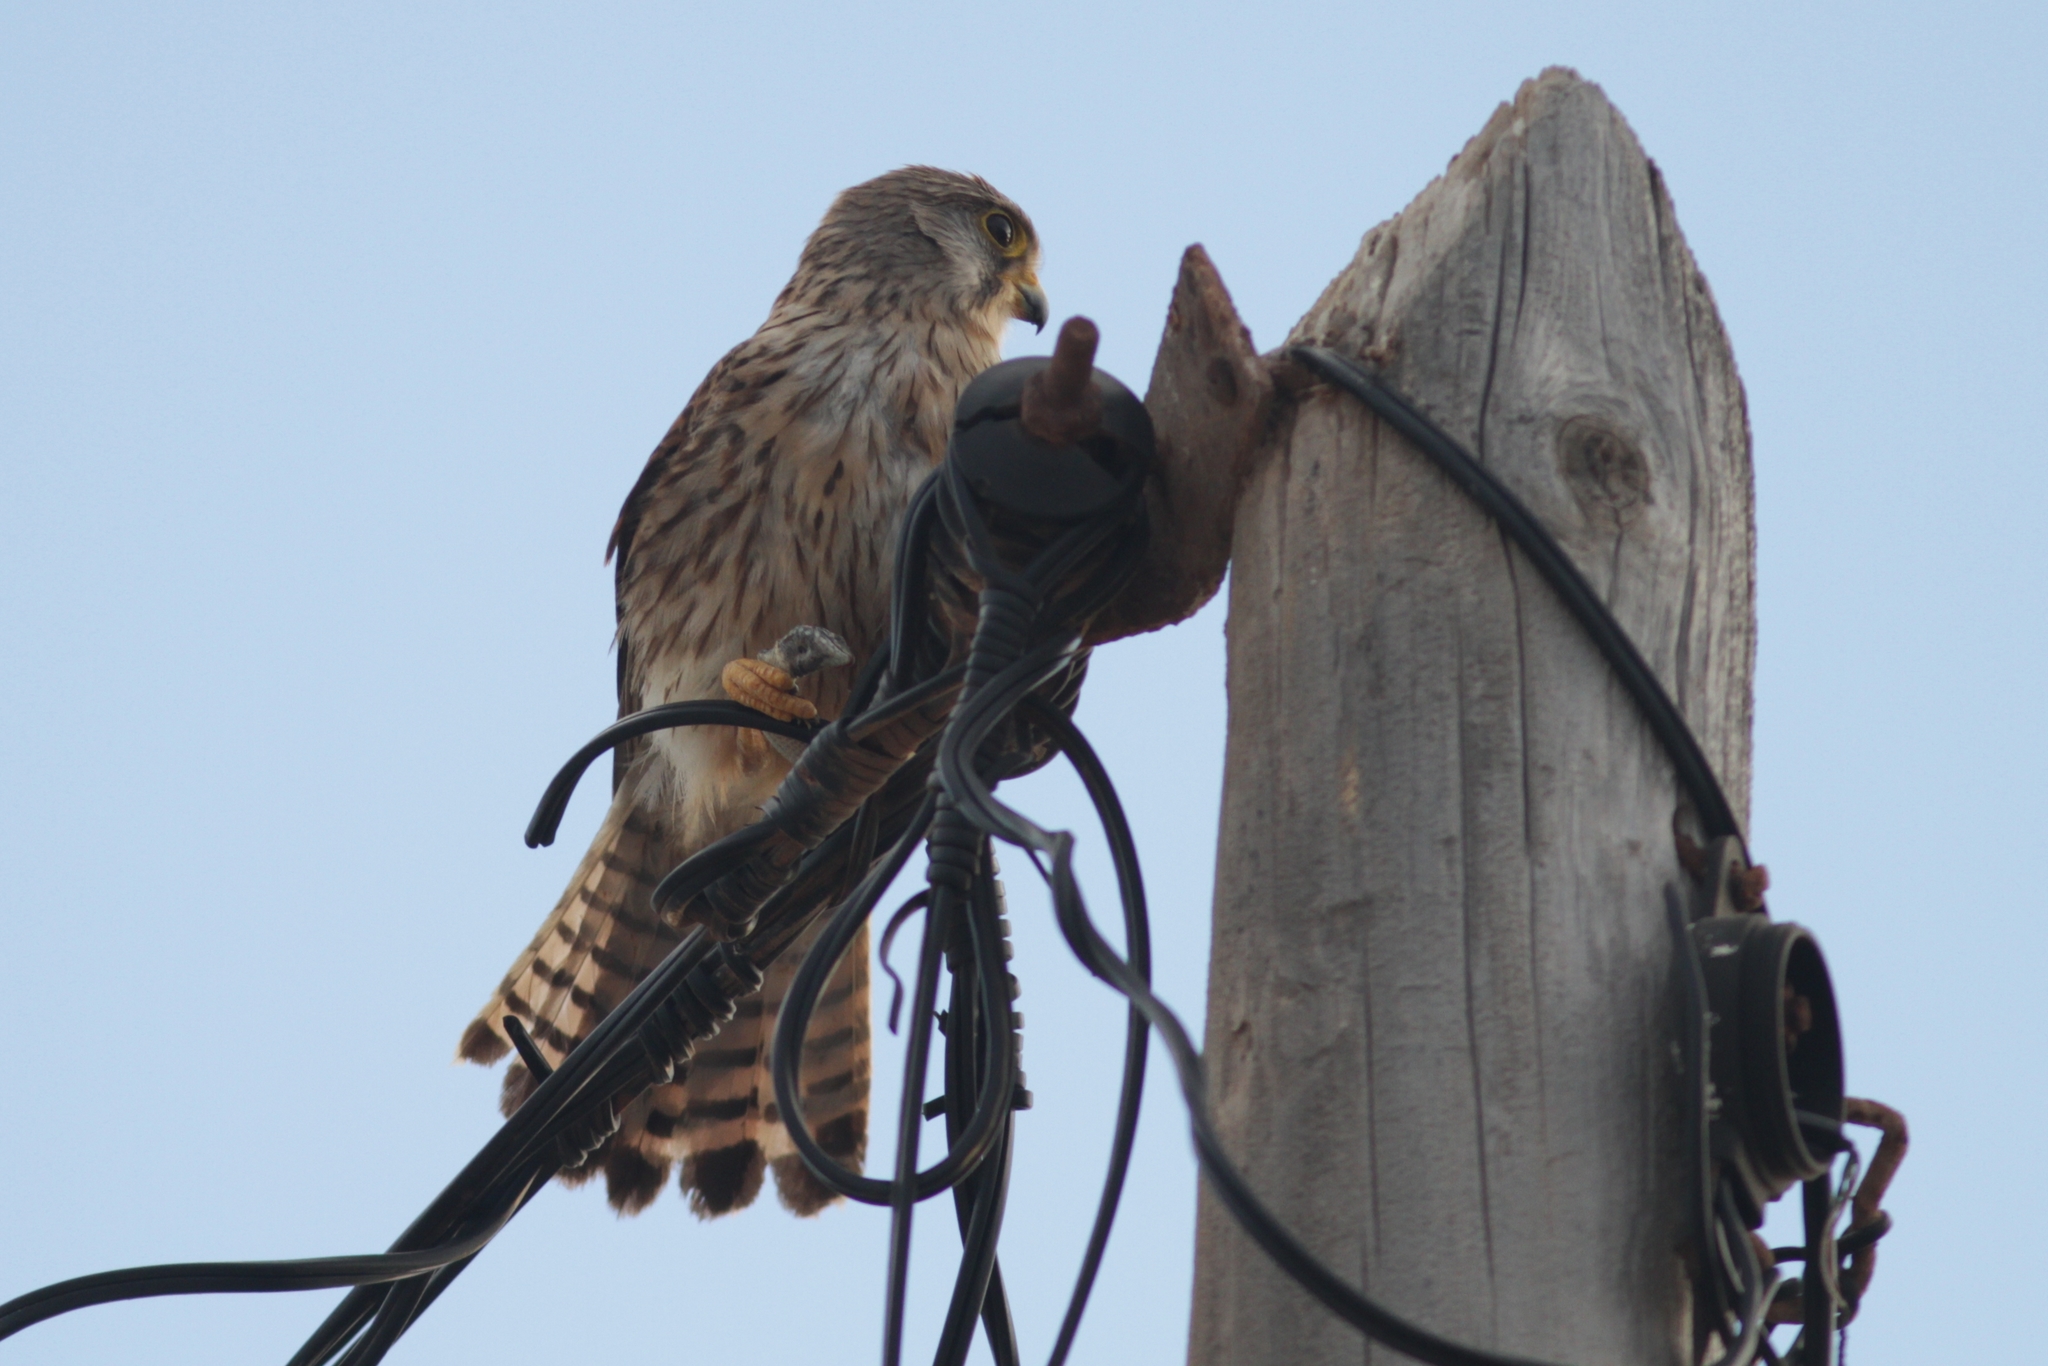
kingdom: Animalia
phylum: Chordata
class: Aves
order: Falconiformes
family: Falconidae
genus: Falco
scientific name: Falco tinnunculus
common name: Common kestrel
